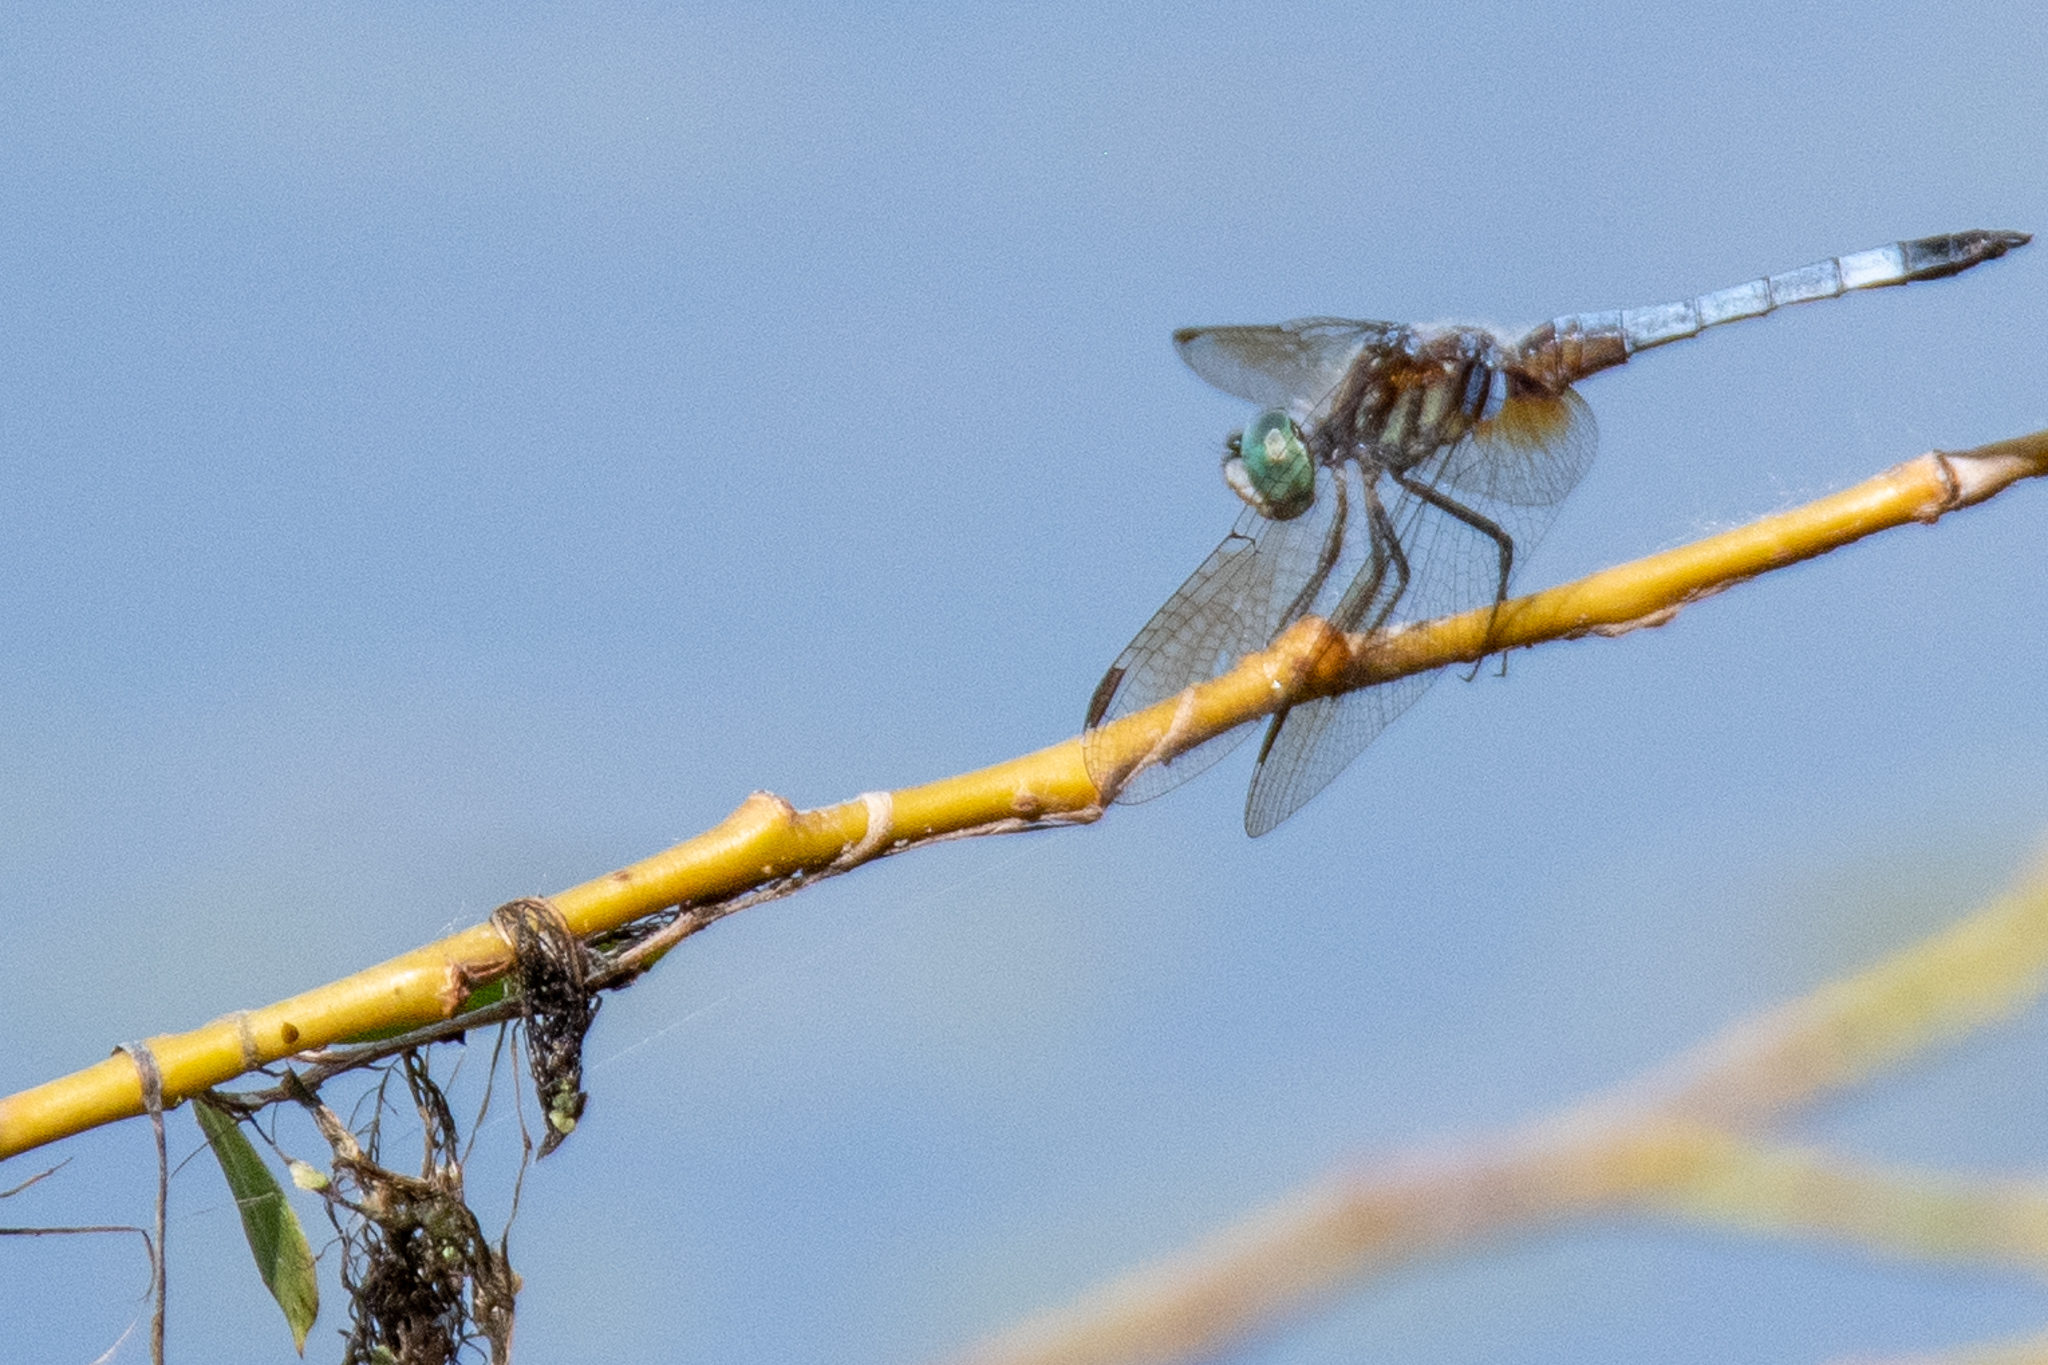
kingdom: Animalia
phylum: Arthropoda
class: Insecta
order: Odonata
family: Libellulidae
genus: Pachydiplax
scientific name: Pachydiplax longipennis
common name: Blue dasher
